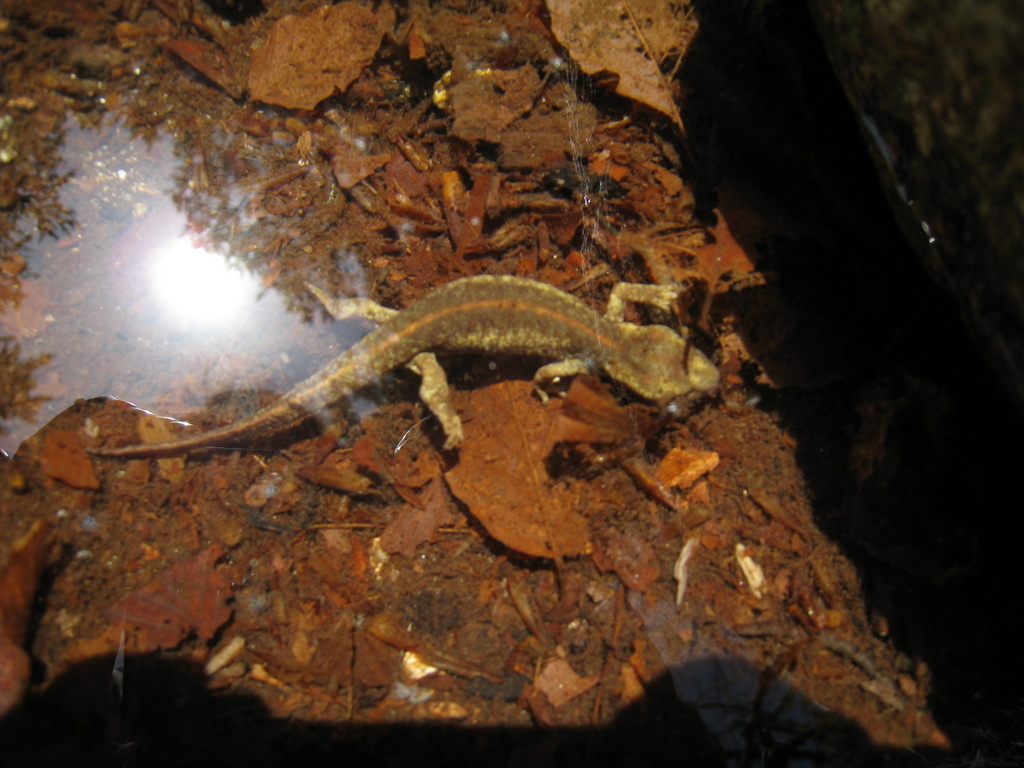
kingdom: Animalia
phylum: Chordata
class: Amphibia
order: Caudata
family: Salamandridae
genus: Euproctus
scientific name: Euproctus montanus
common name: Corsican brook salamander
